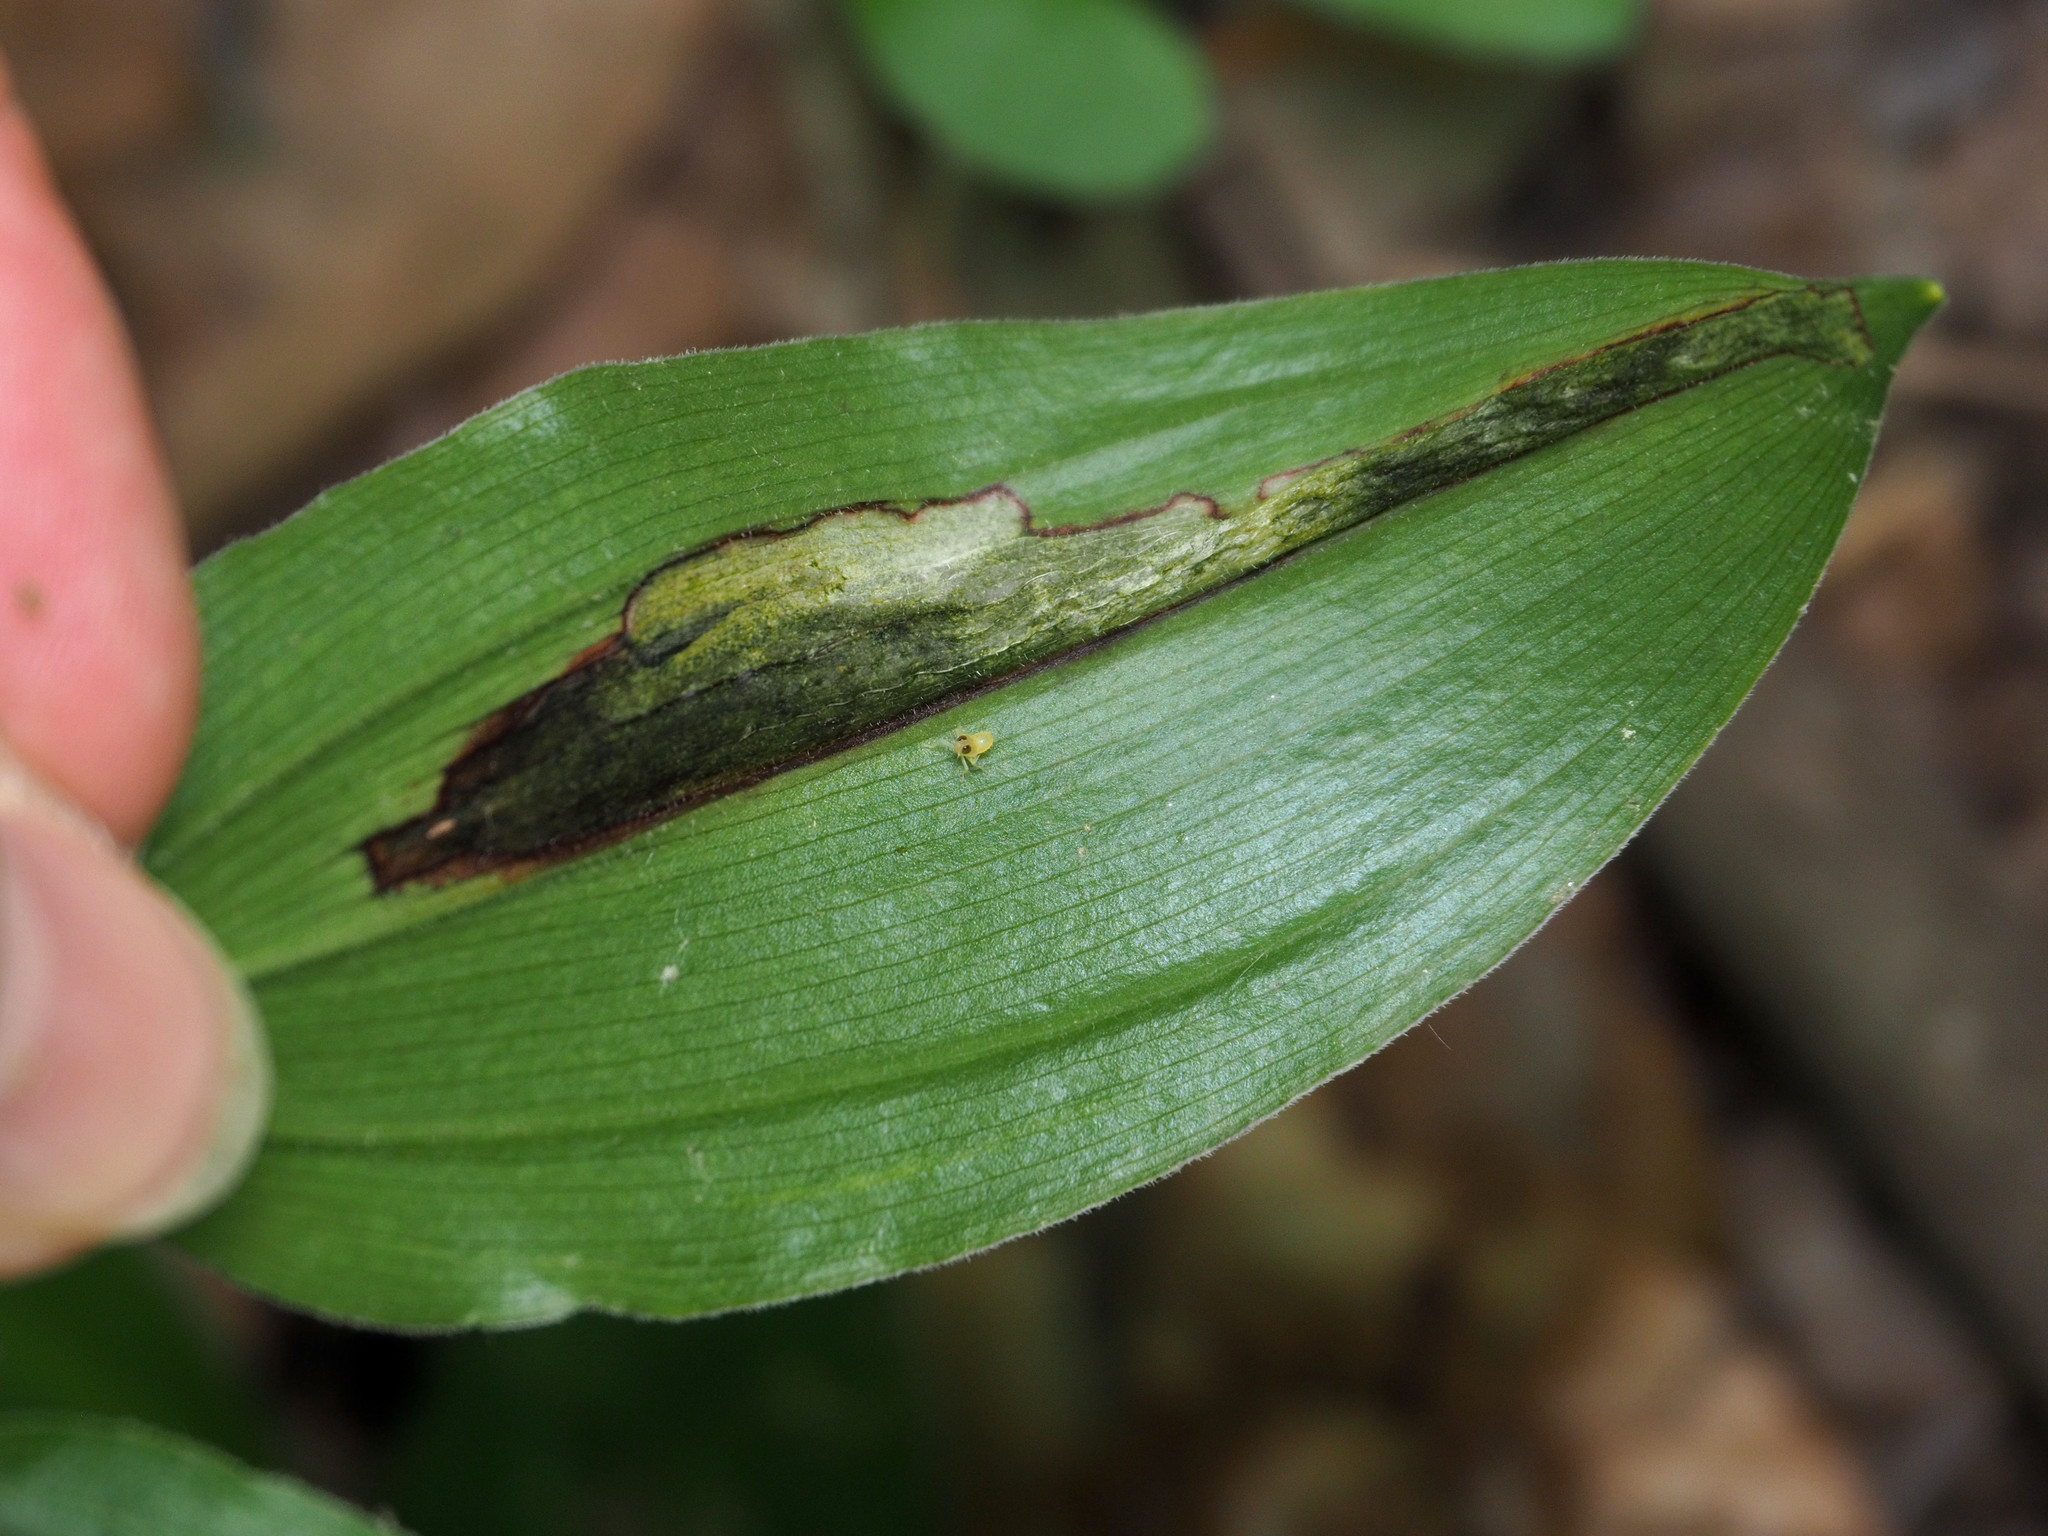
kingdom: Animalia
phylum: Arthropoda
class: Insecta
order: Diptera
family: Scathophagidae
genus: Synchysa
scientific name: Synchysa tricincta
